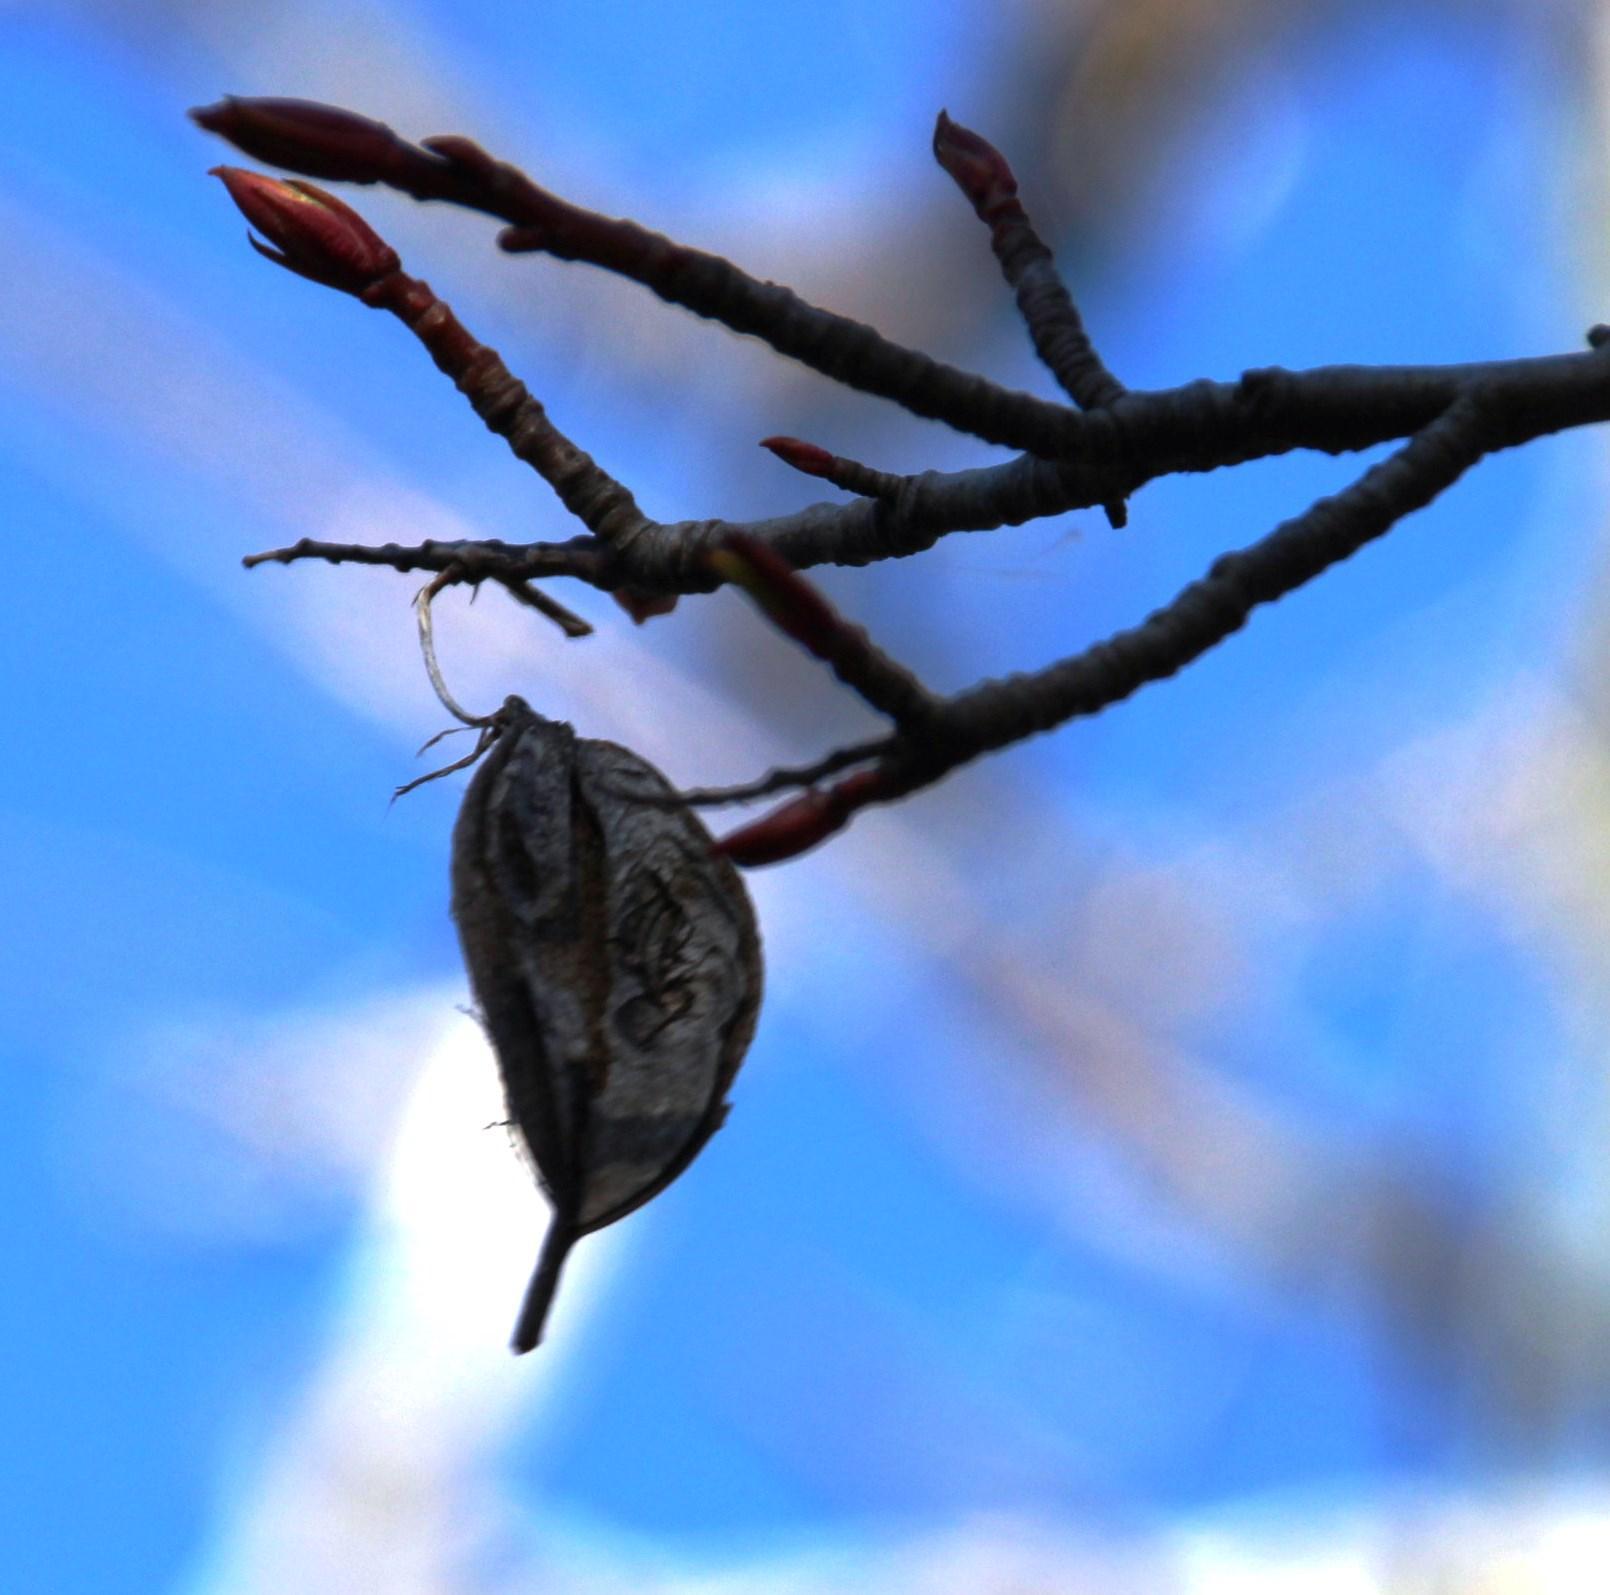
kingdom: Plantae
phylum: Tracheophyta
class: Magnoliopsida
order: Proteales
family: Proteaceae
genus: Embothrium
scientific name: Embothrium coccineum
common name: Chilean firebush
